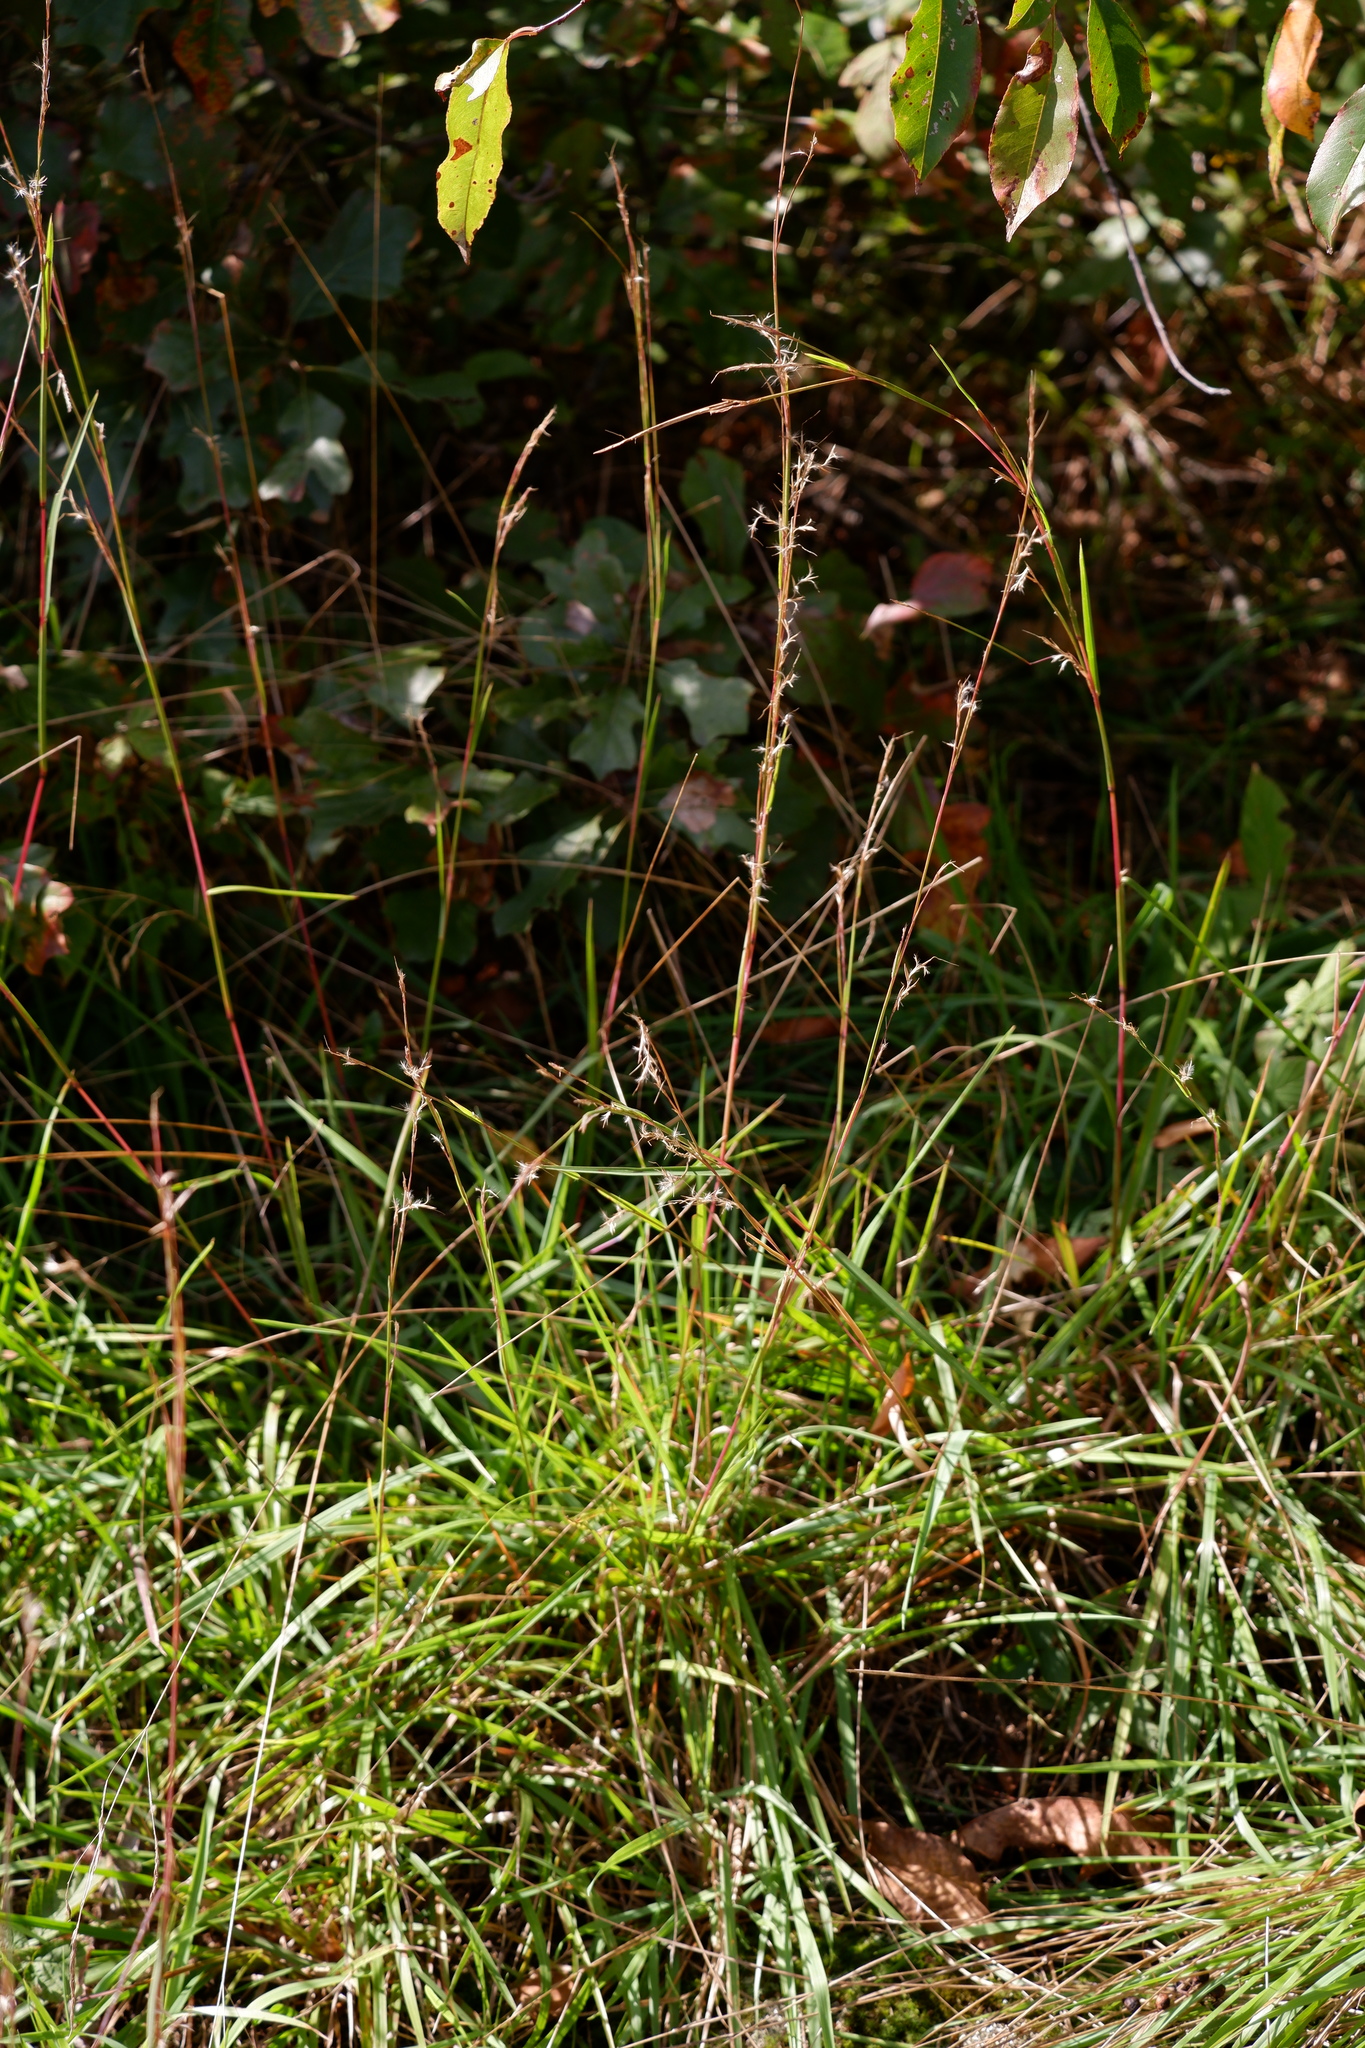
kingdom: Plantae
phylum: Tracheophyta
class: Liliopsida
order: Poales
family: Poaceae
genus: Schizachyrium
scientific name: Schizachyrium scoparium
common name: Little bluestem
